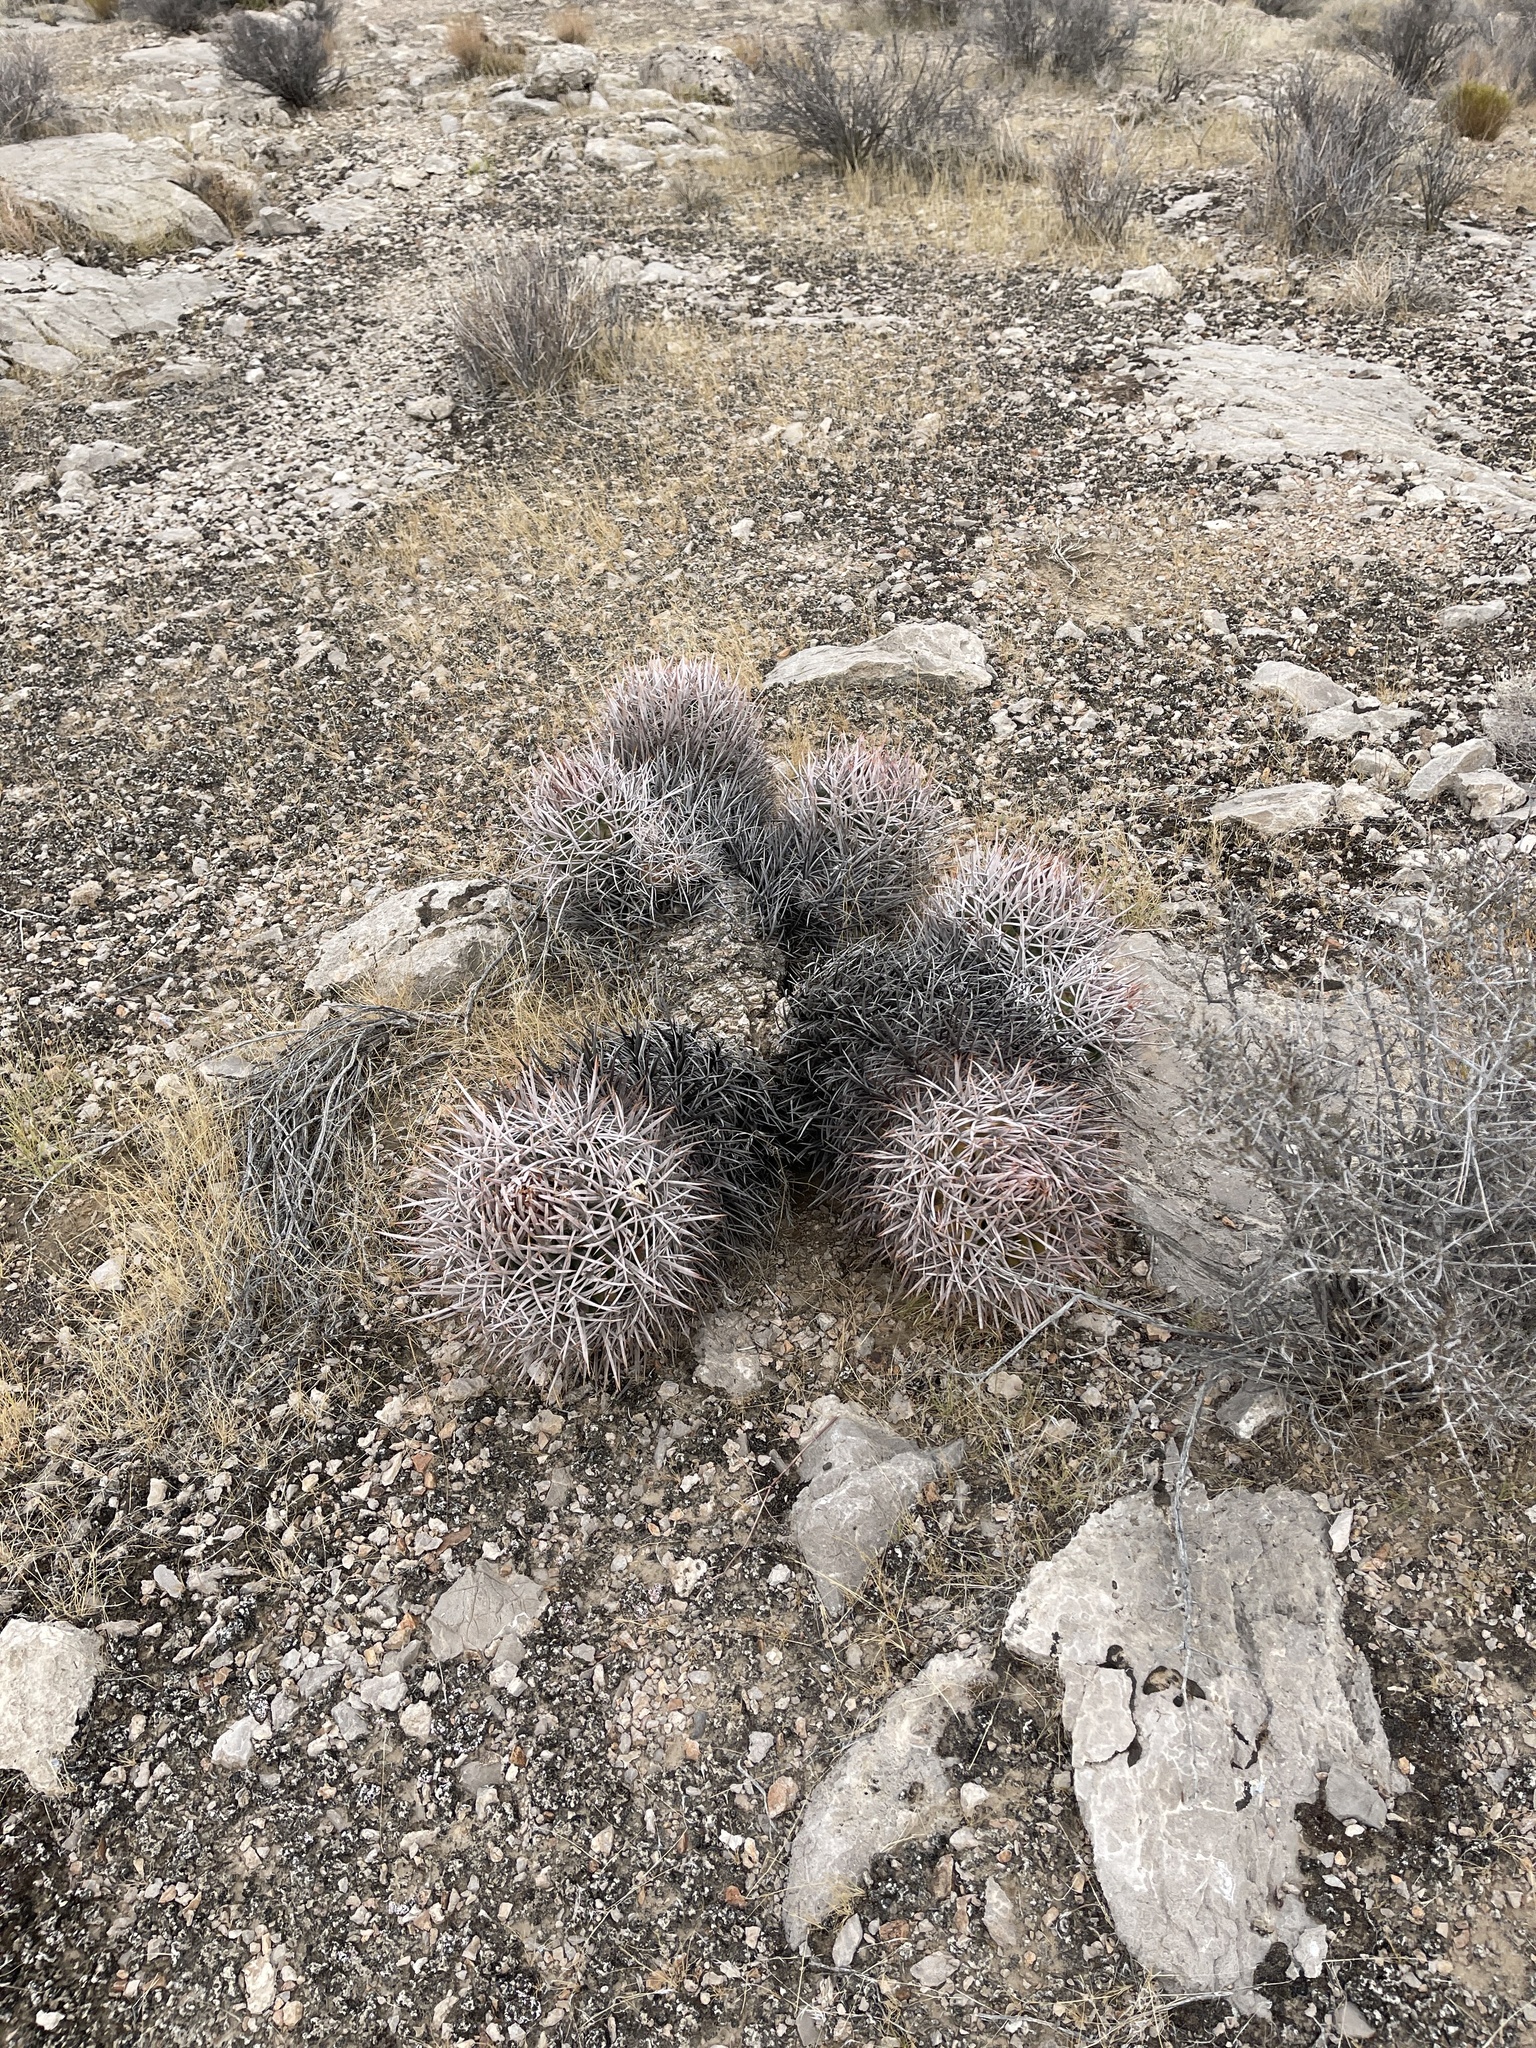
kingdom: Plantae
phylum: Tracheophyta
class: Magnoliopsida
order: Caryophyllales
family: Cactaceae
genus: Echinocactus
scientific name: Echinocactus polycephalus
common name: Cottontop cactus
